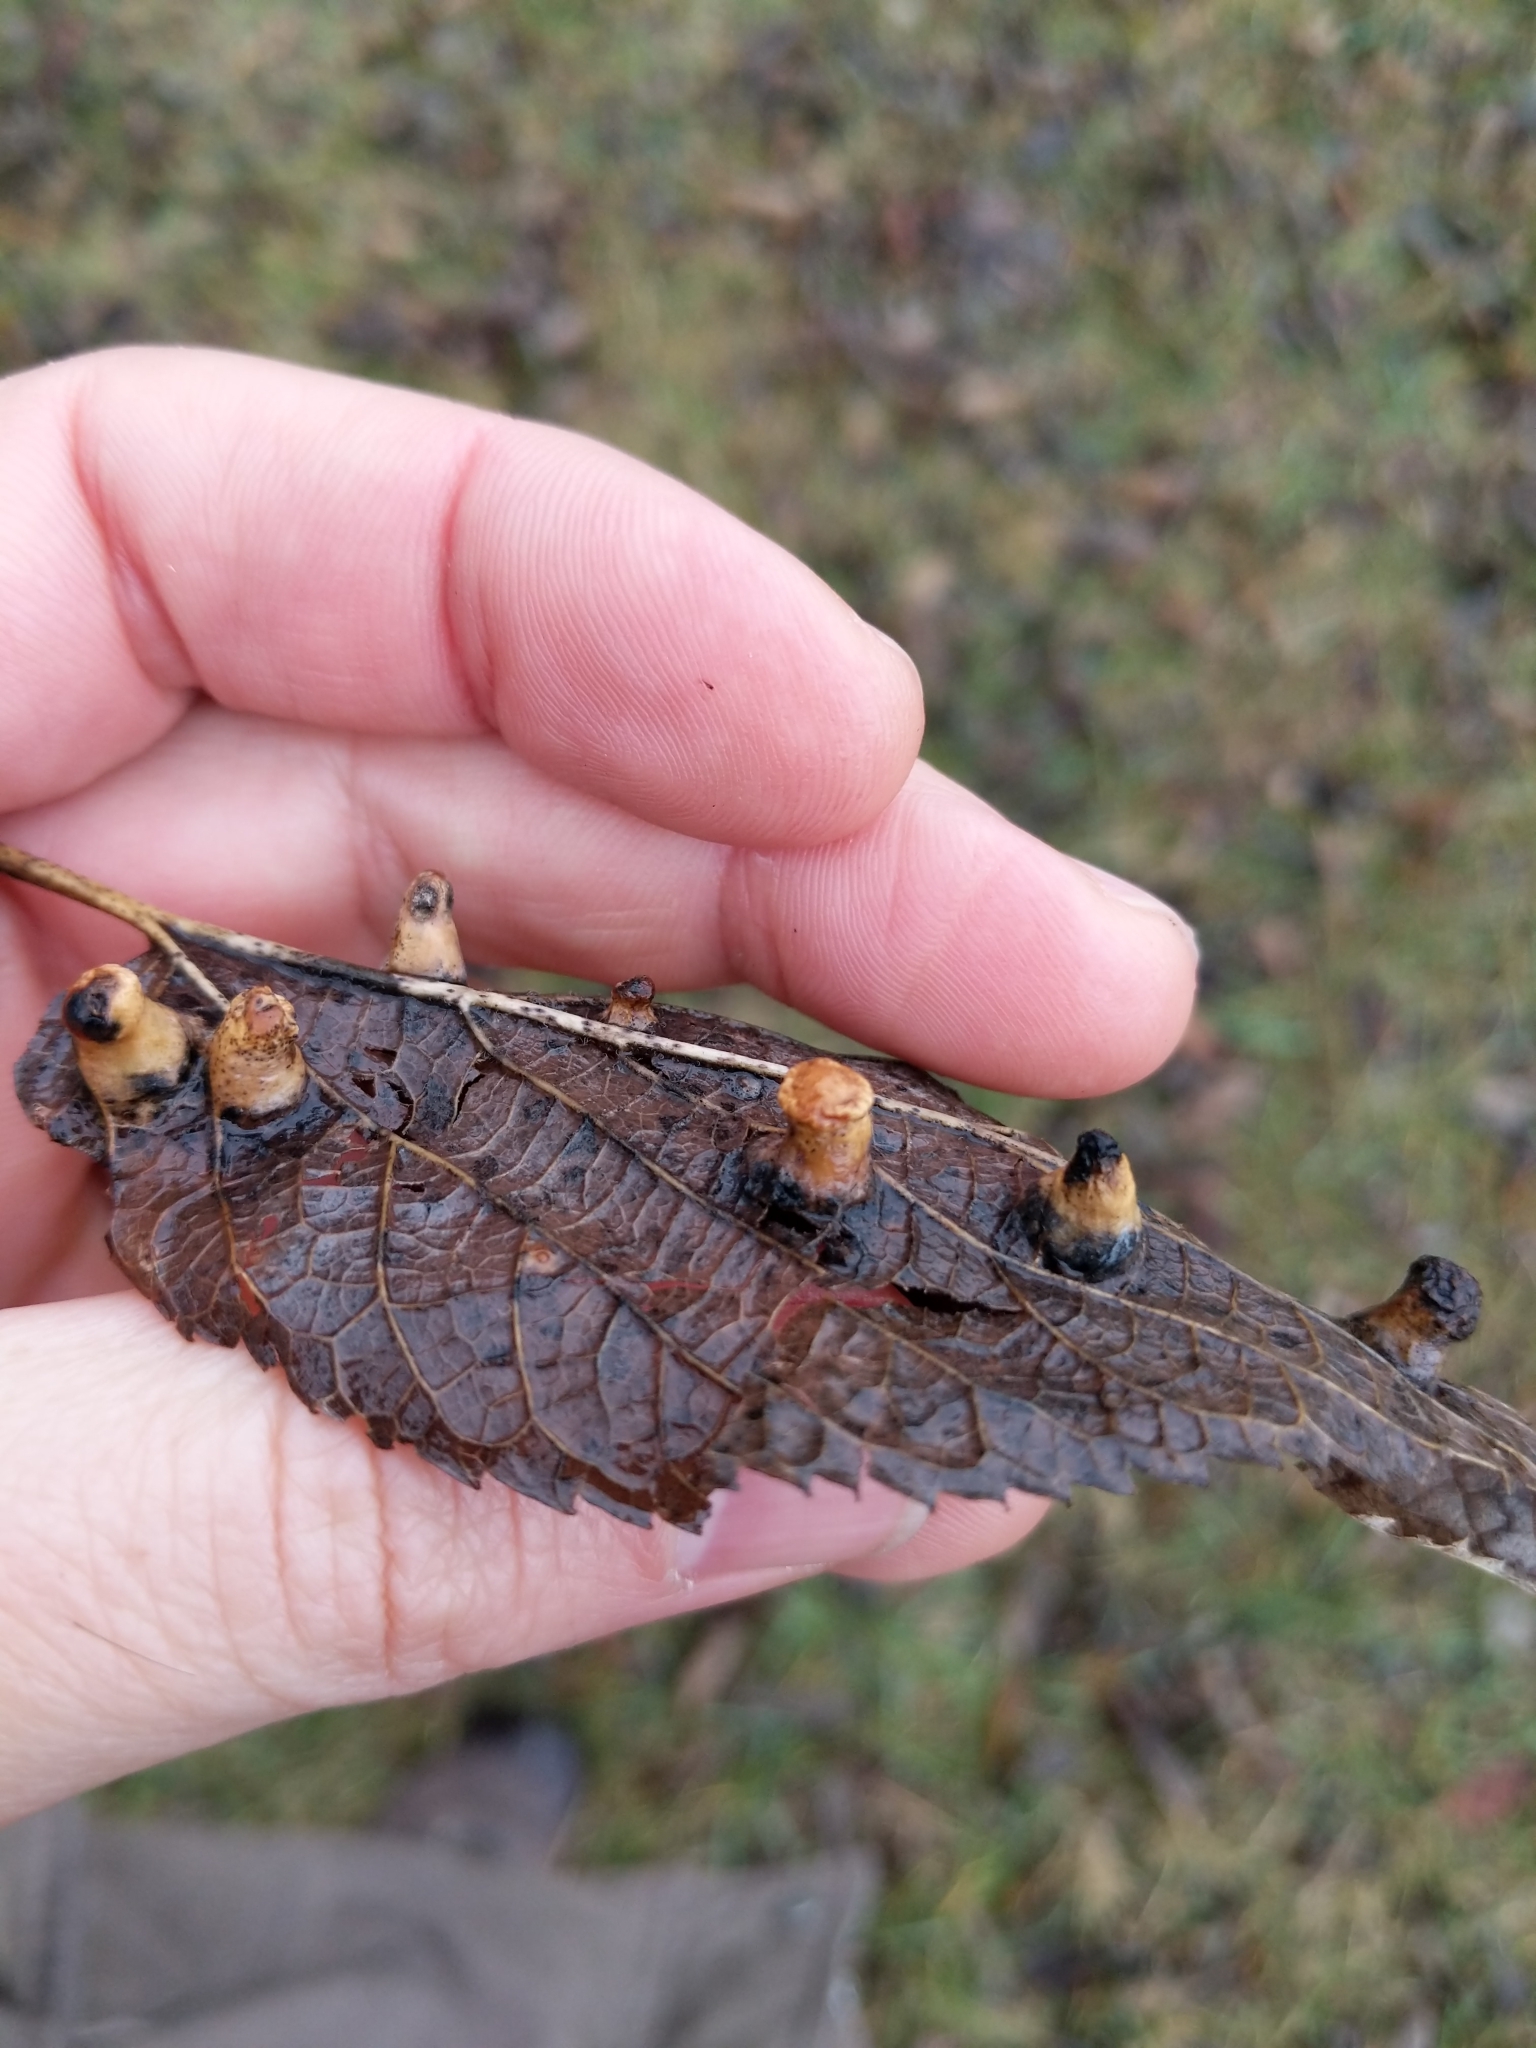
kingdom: Animalia
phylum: Arthropoda
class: Insecta
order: Hemiptera
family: Aphalaridae
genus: Pachypsylla
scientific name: Pachypsylla celtidismamma
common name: Hackberry nipplegall psyllid
